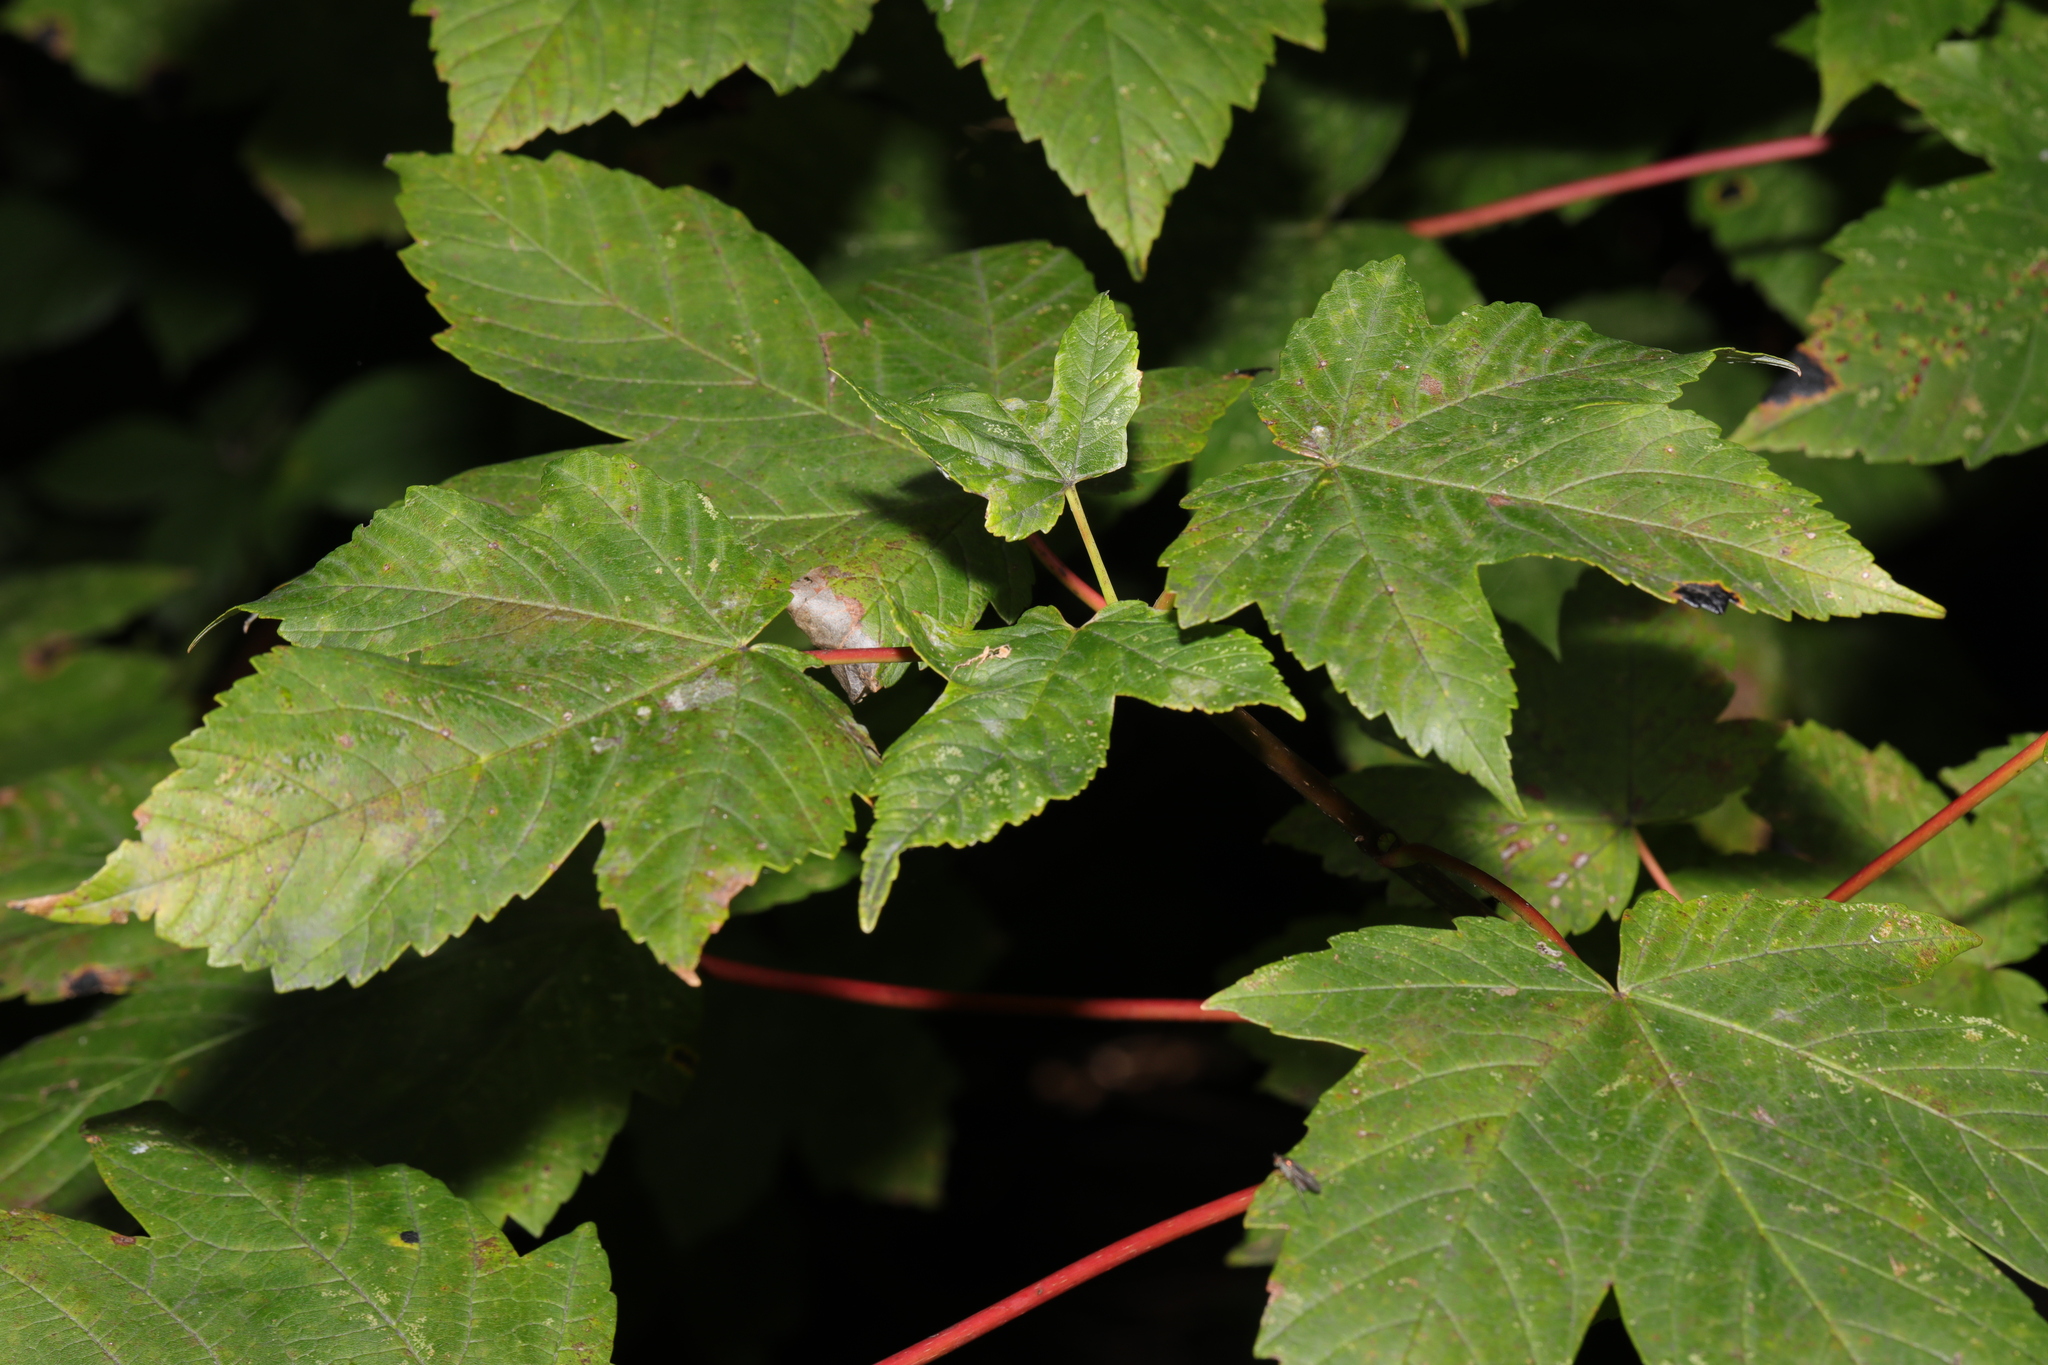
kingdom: Plantae
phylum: Tracheophyta
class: Magnoliopsida
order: Sapindales
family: Sapindaceae
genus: Acer
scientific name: Acer pseudoplatanus
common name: Sycamore
